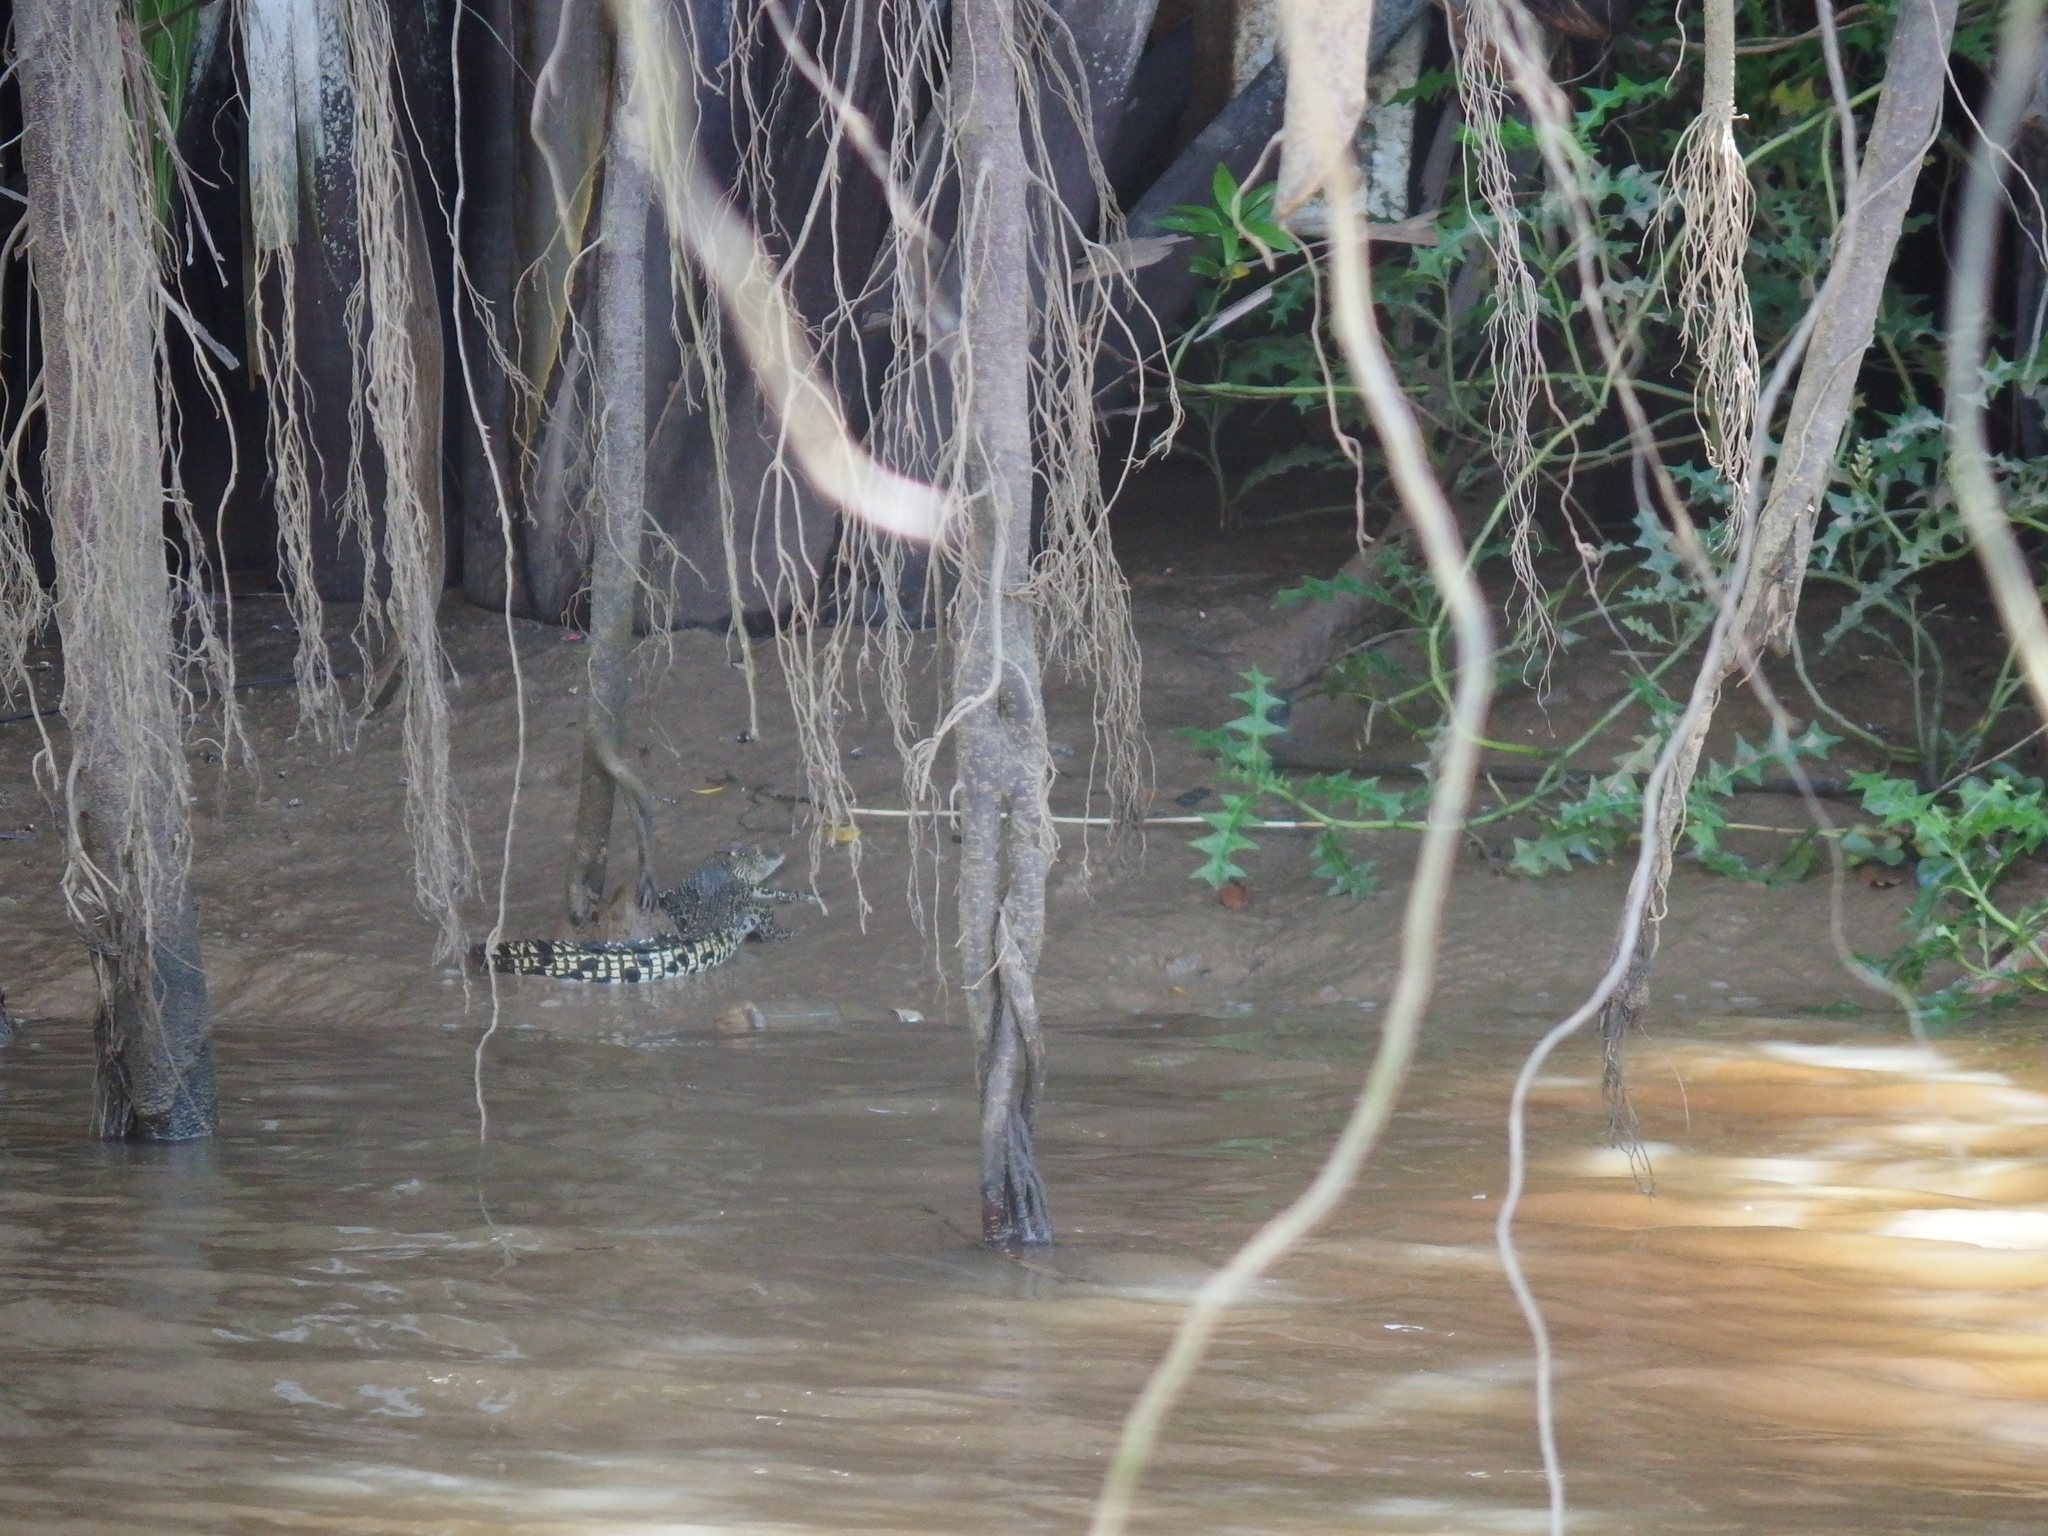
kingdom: Animalia
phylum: Chordata
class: Crocodylia
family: Crocodylidae
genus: Crocodylus
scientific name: Crocodylus porosus
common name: Saltwater crocodile
